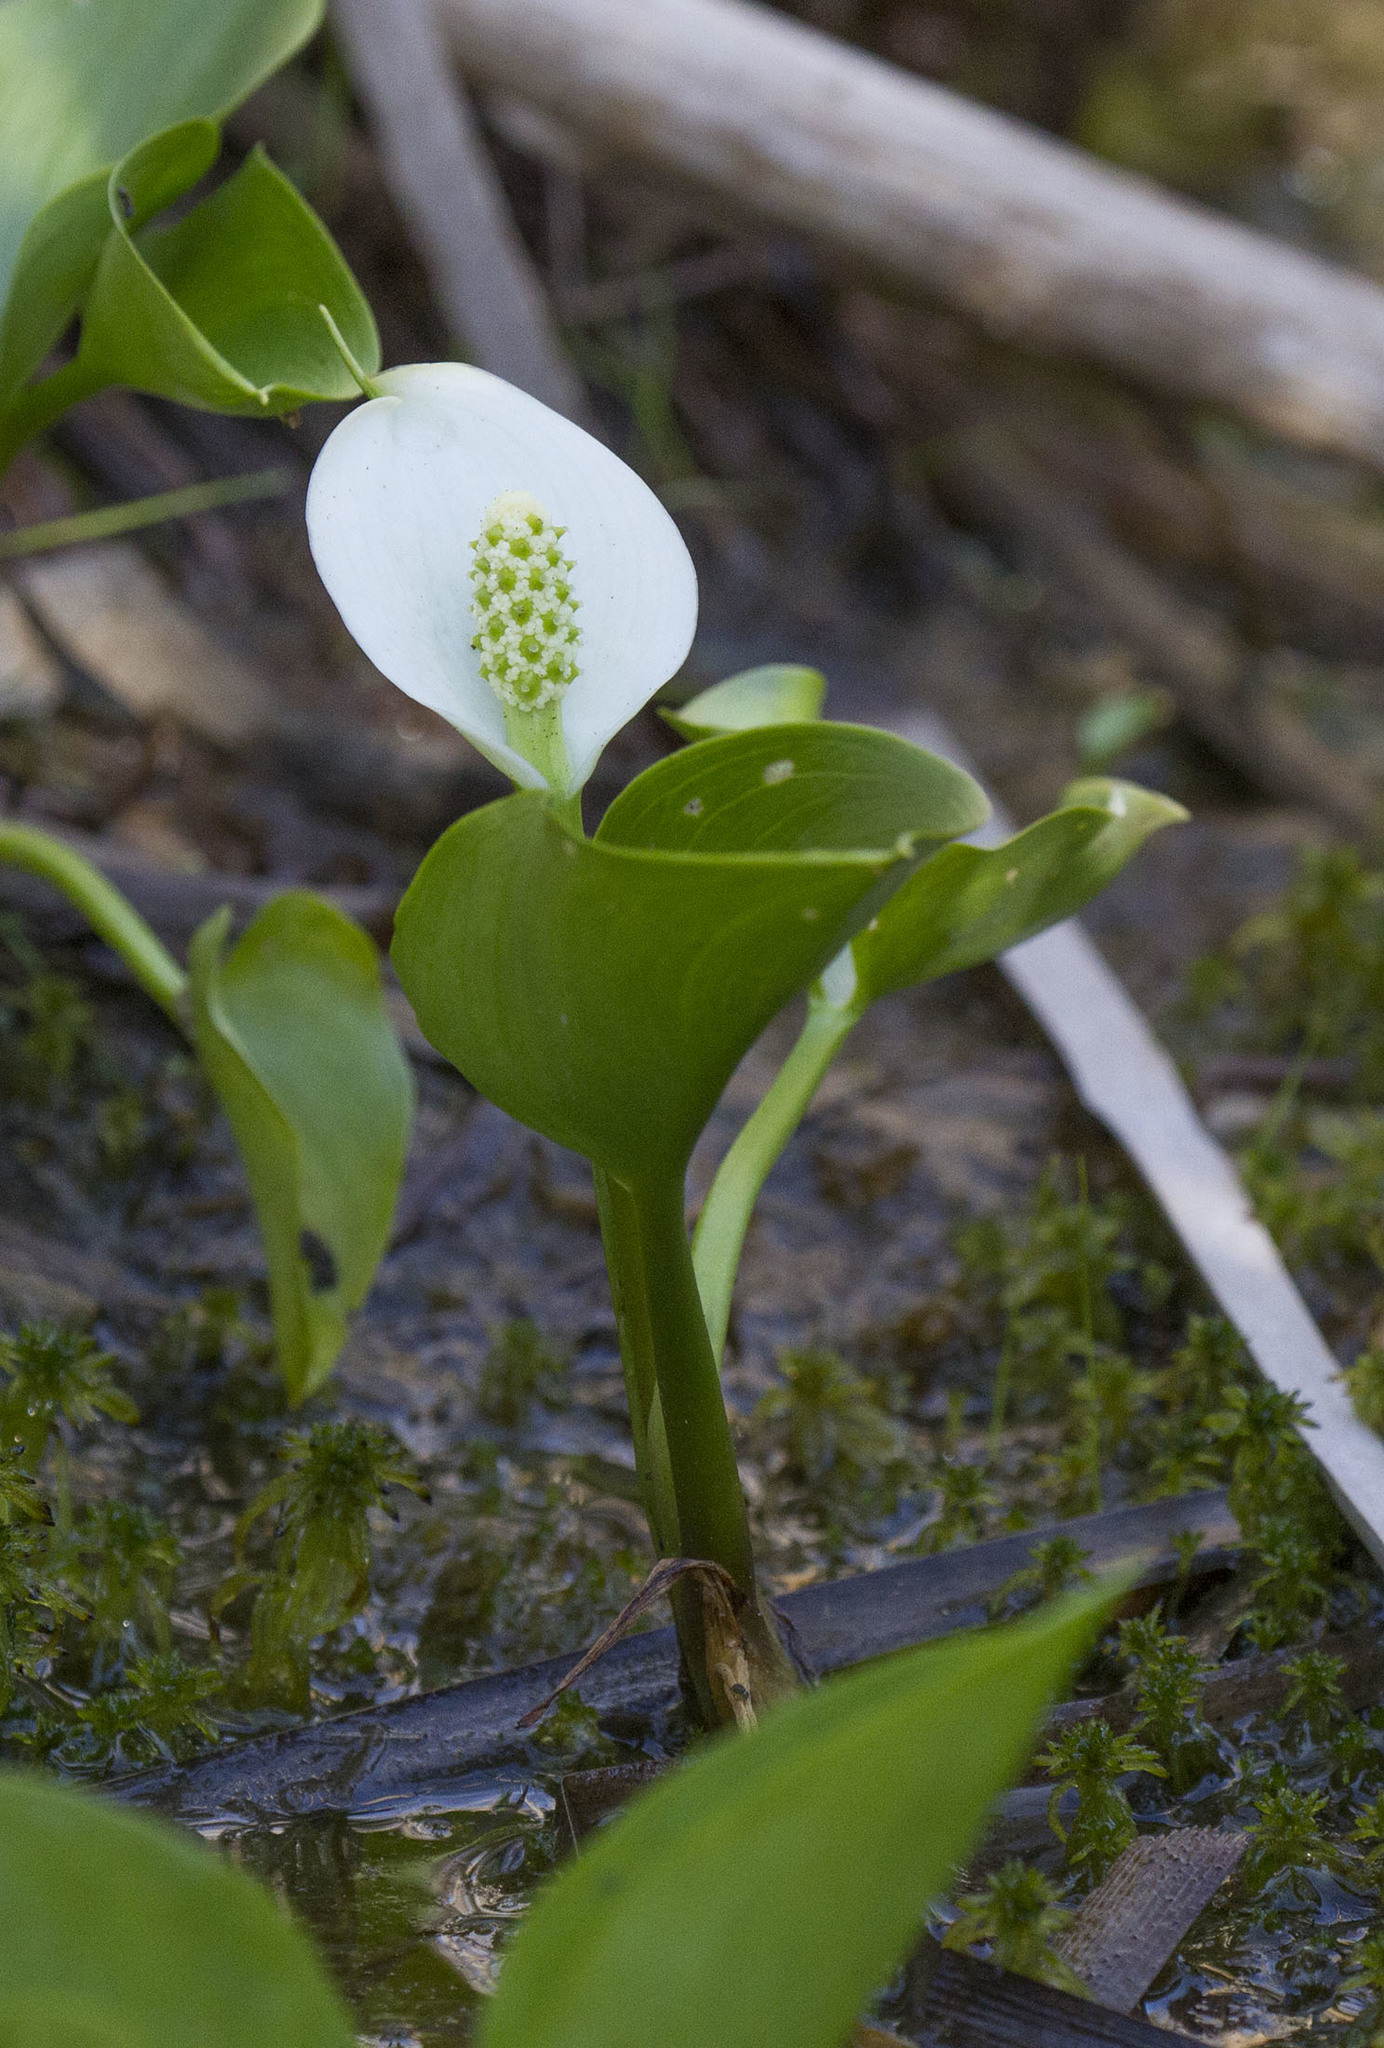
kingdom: Plantae
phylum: Tracheophyta
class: Liliopsida
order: Alismatales
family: Araceae
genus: Calla
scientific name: Calla palustris
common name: Bog arum
